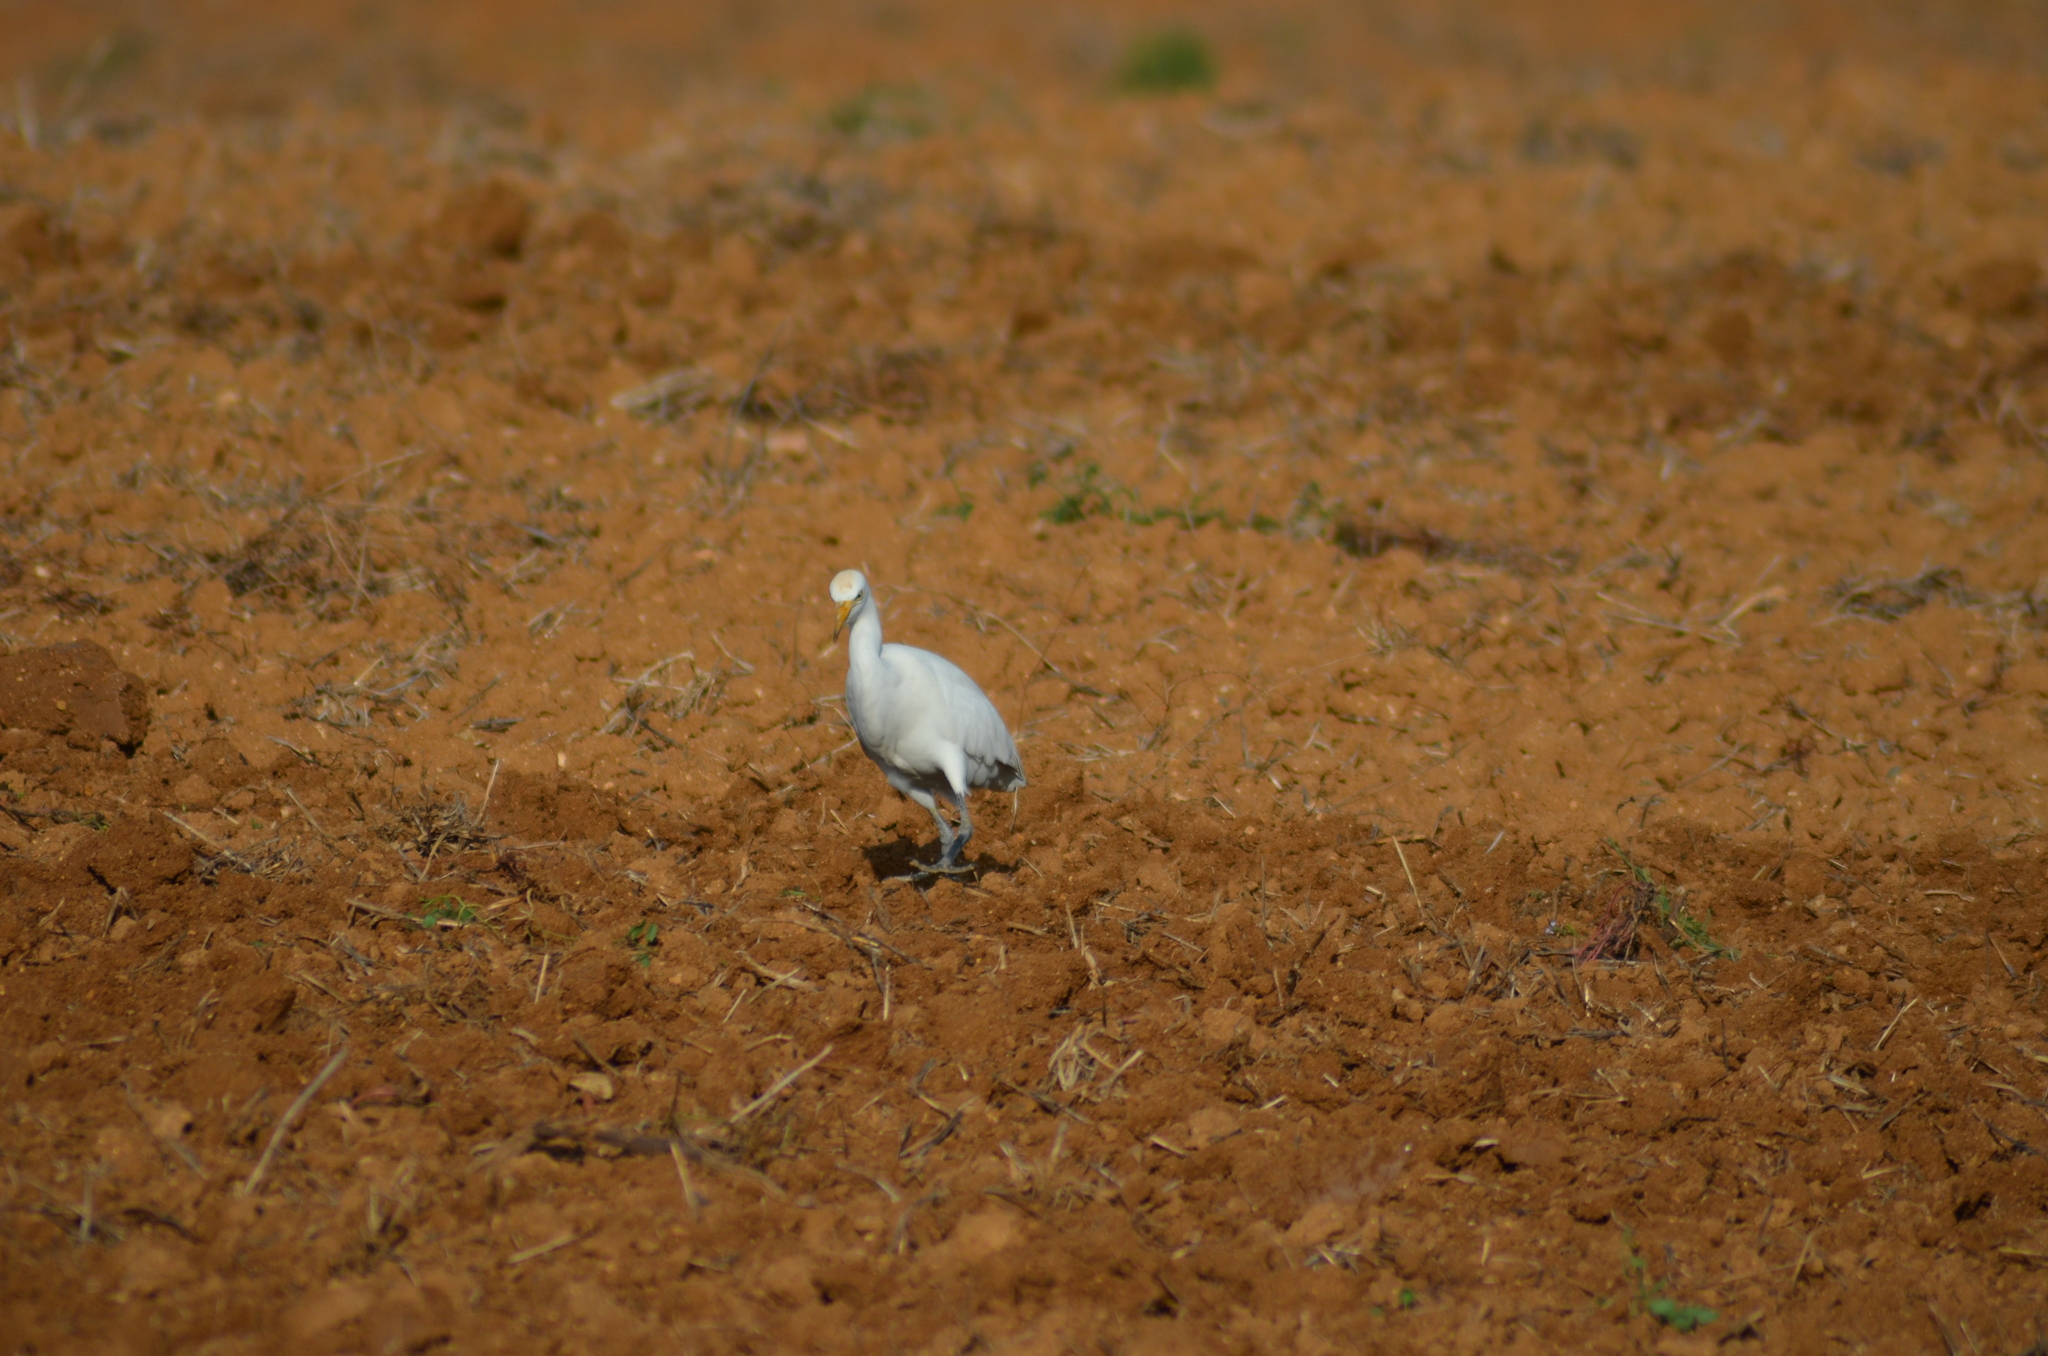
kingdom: Animalia
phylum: Chordata
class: Aves
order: Pelecaniformes
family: Ardeidae
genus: Bubulcus
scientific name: Bubulcus ibis
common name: Cattle egret
